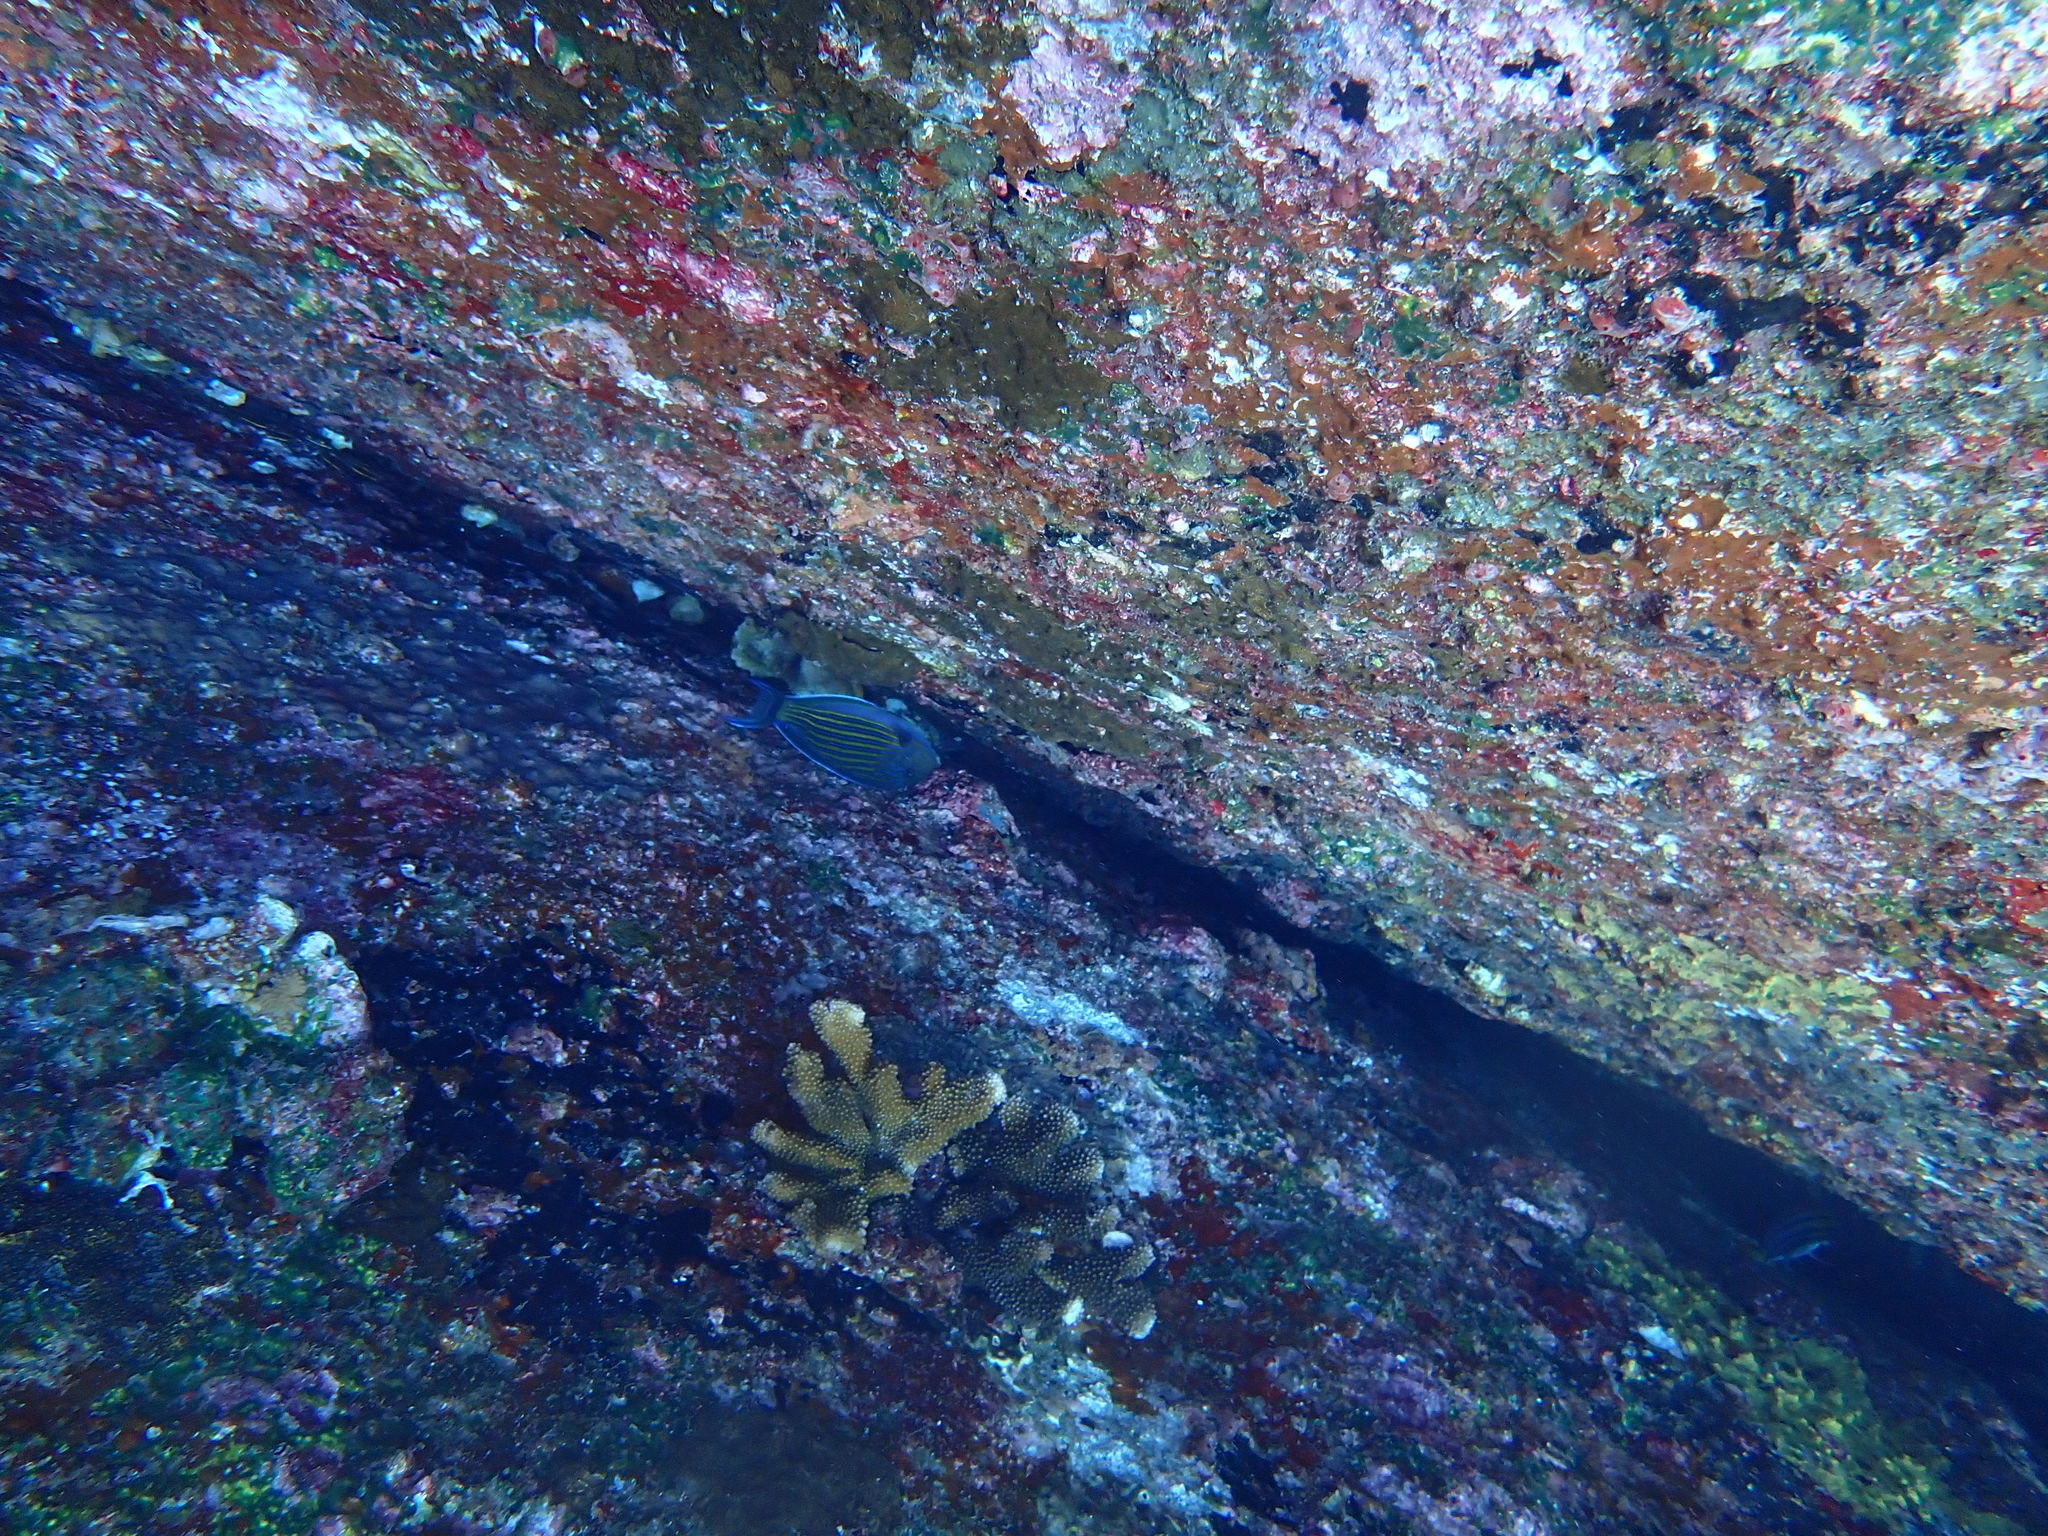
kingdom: Animalia
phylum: Chordata
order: Perciformes
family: Acanthuridae
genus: Acanthurus
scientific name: Acanthurus lineatus
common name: Striped surgeonfish
